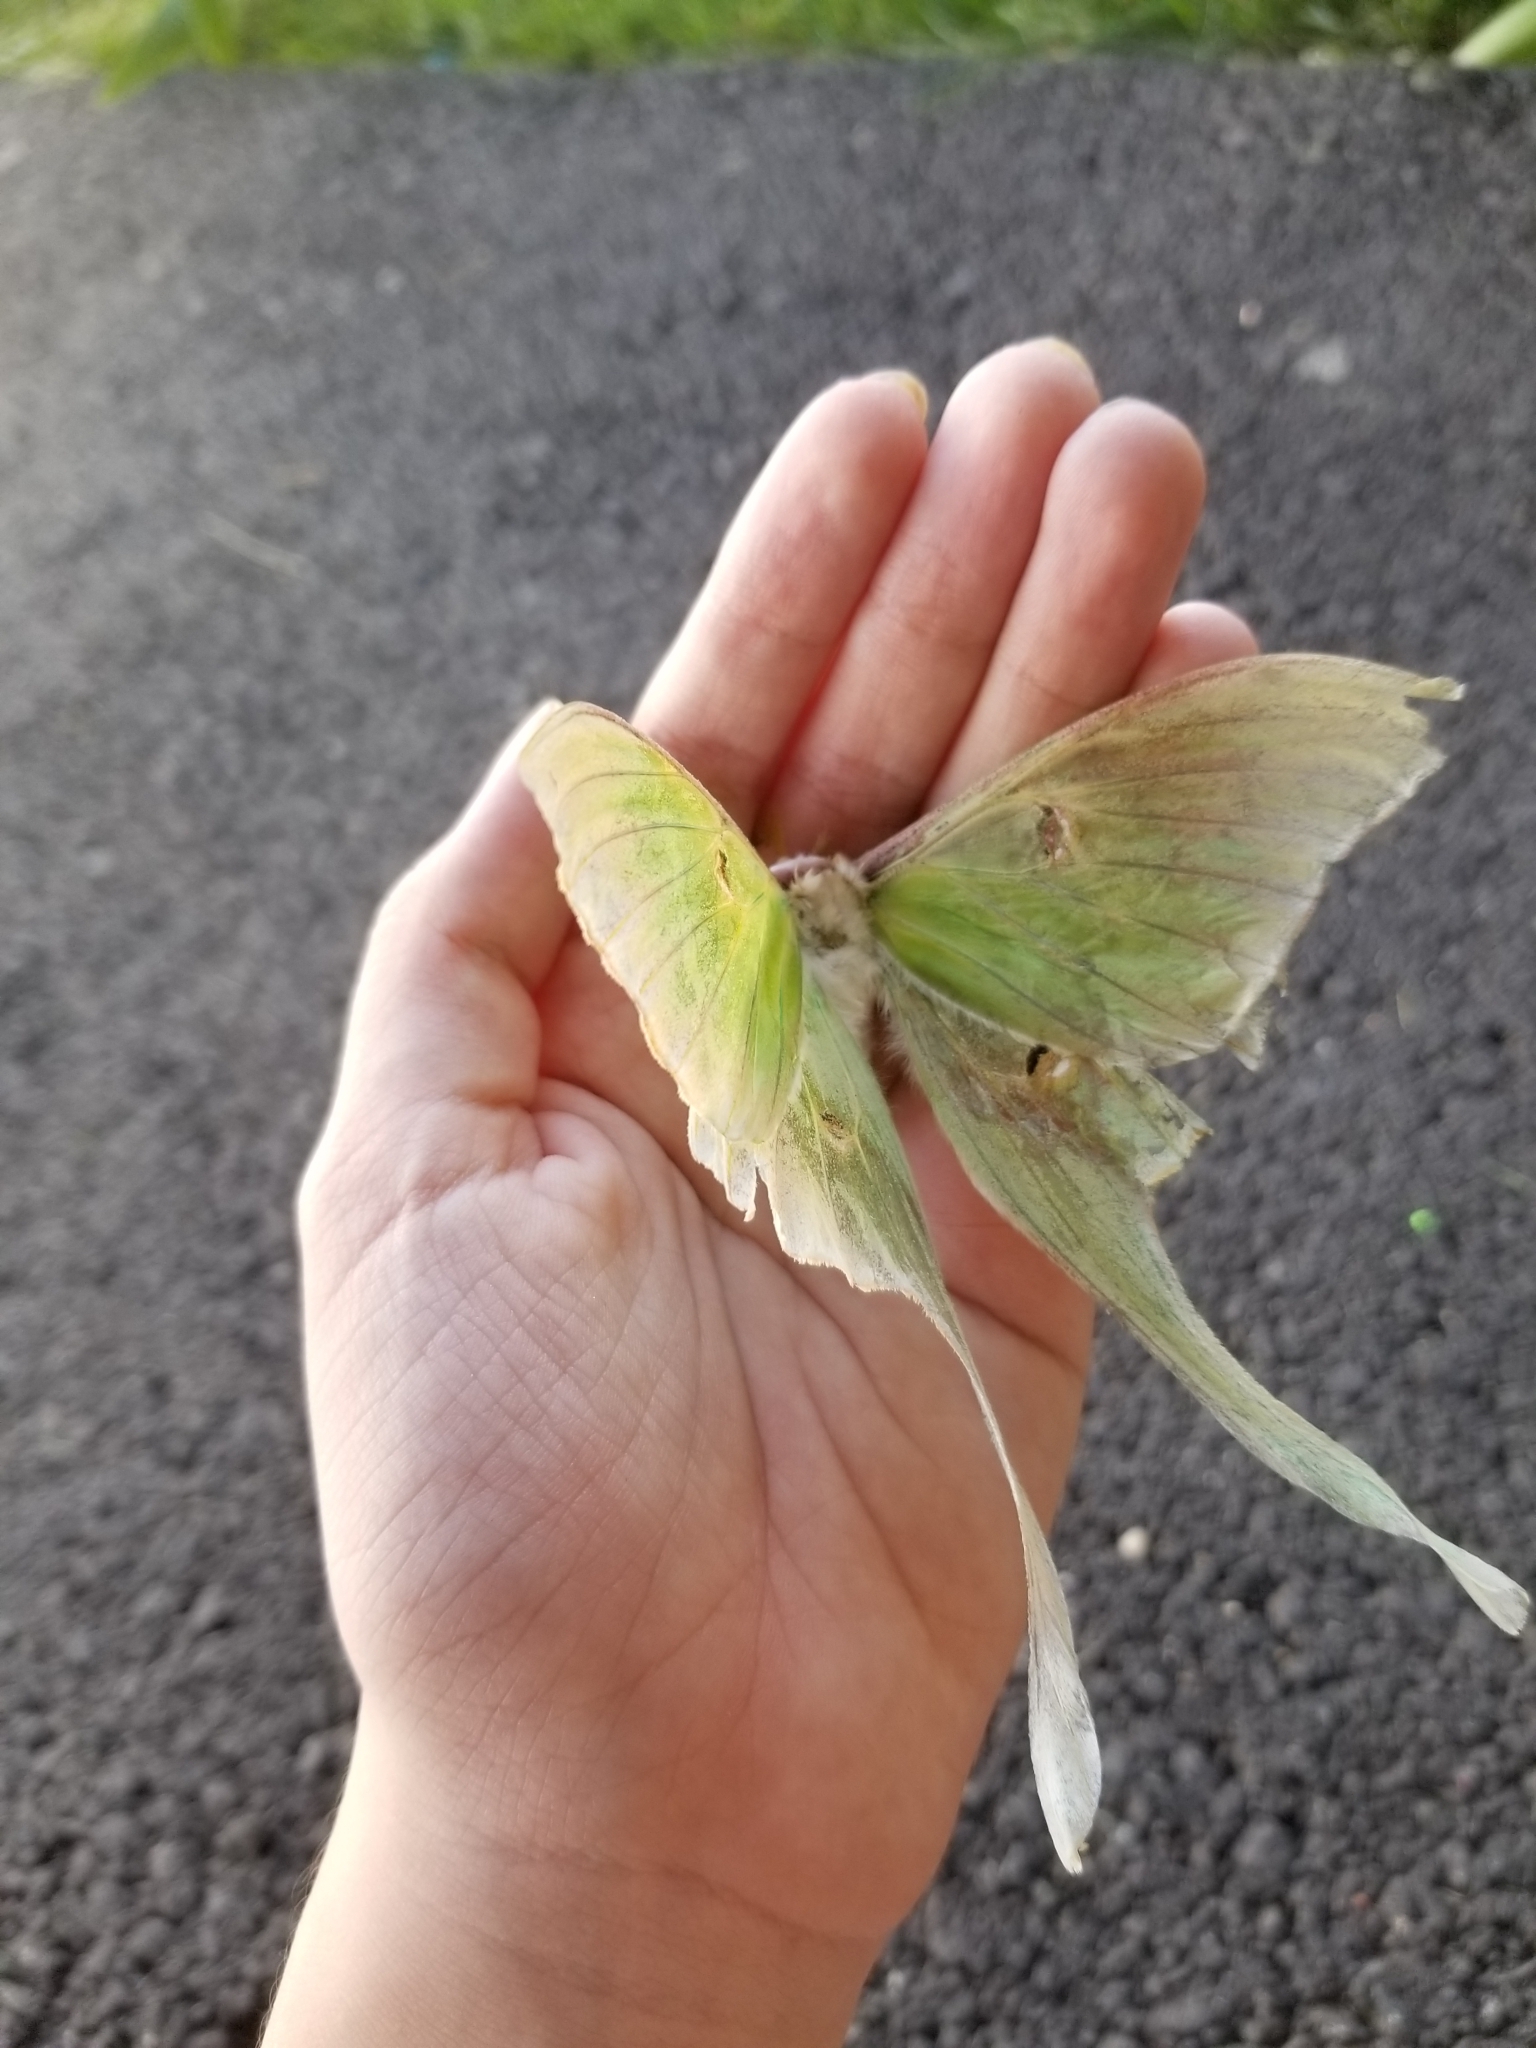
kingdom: Animalia
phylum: Arthropoda
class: Insecta
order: Lepidoptera
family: Saturniidae
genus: Actias
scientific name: Actias luna
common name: Luna moth
